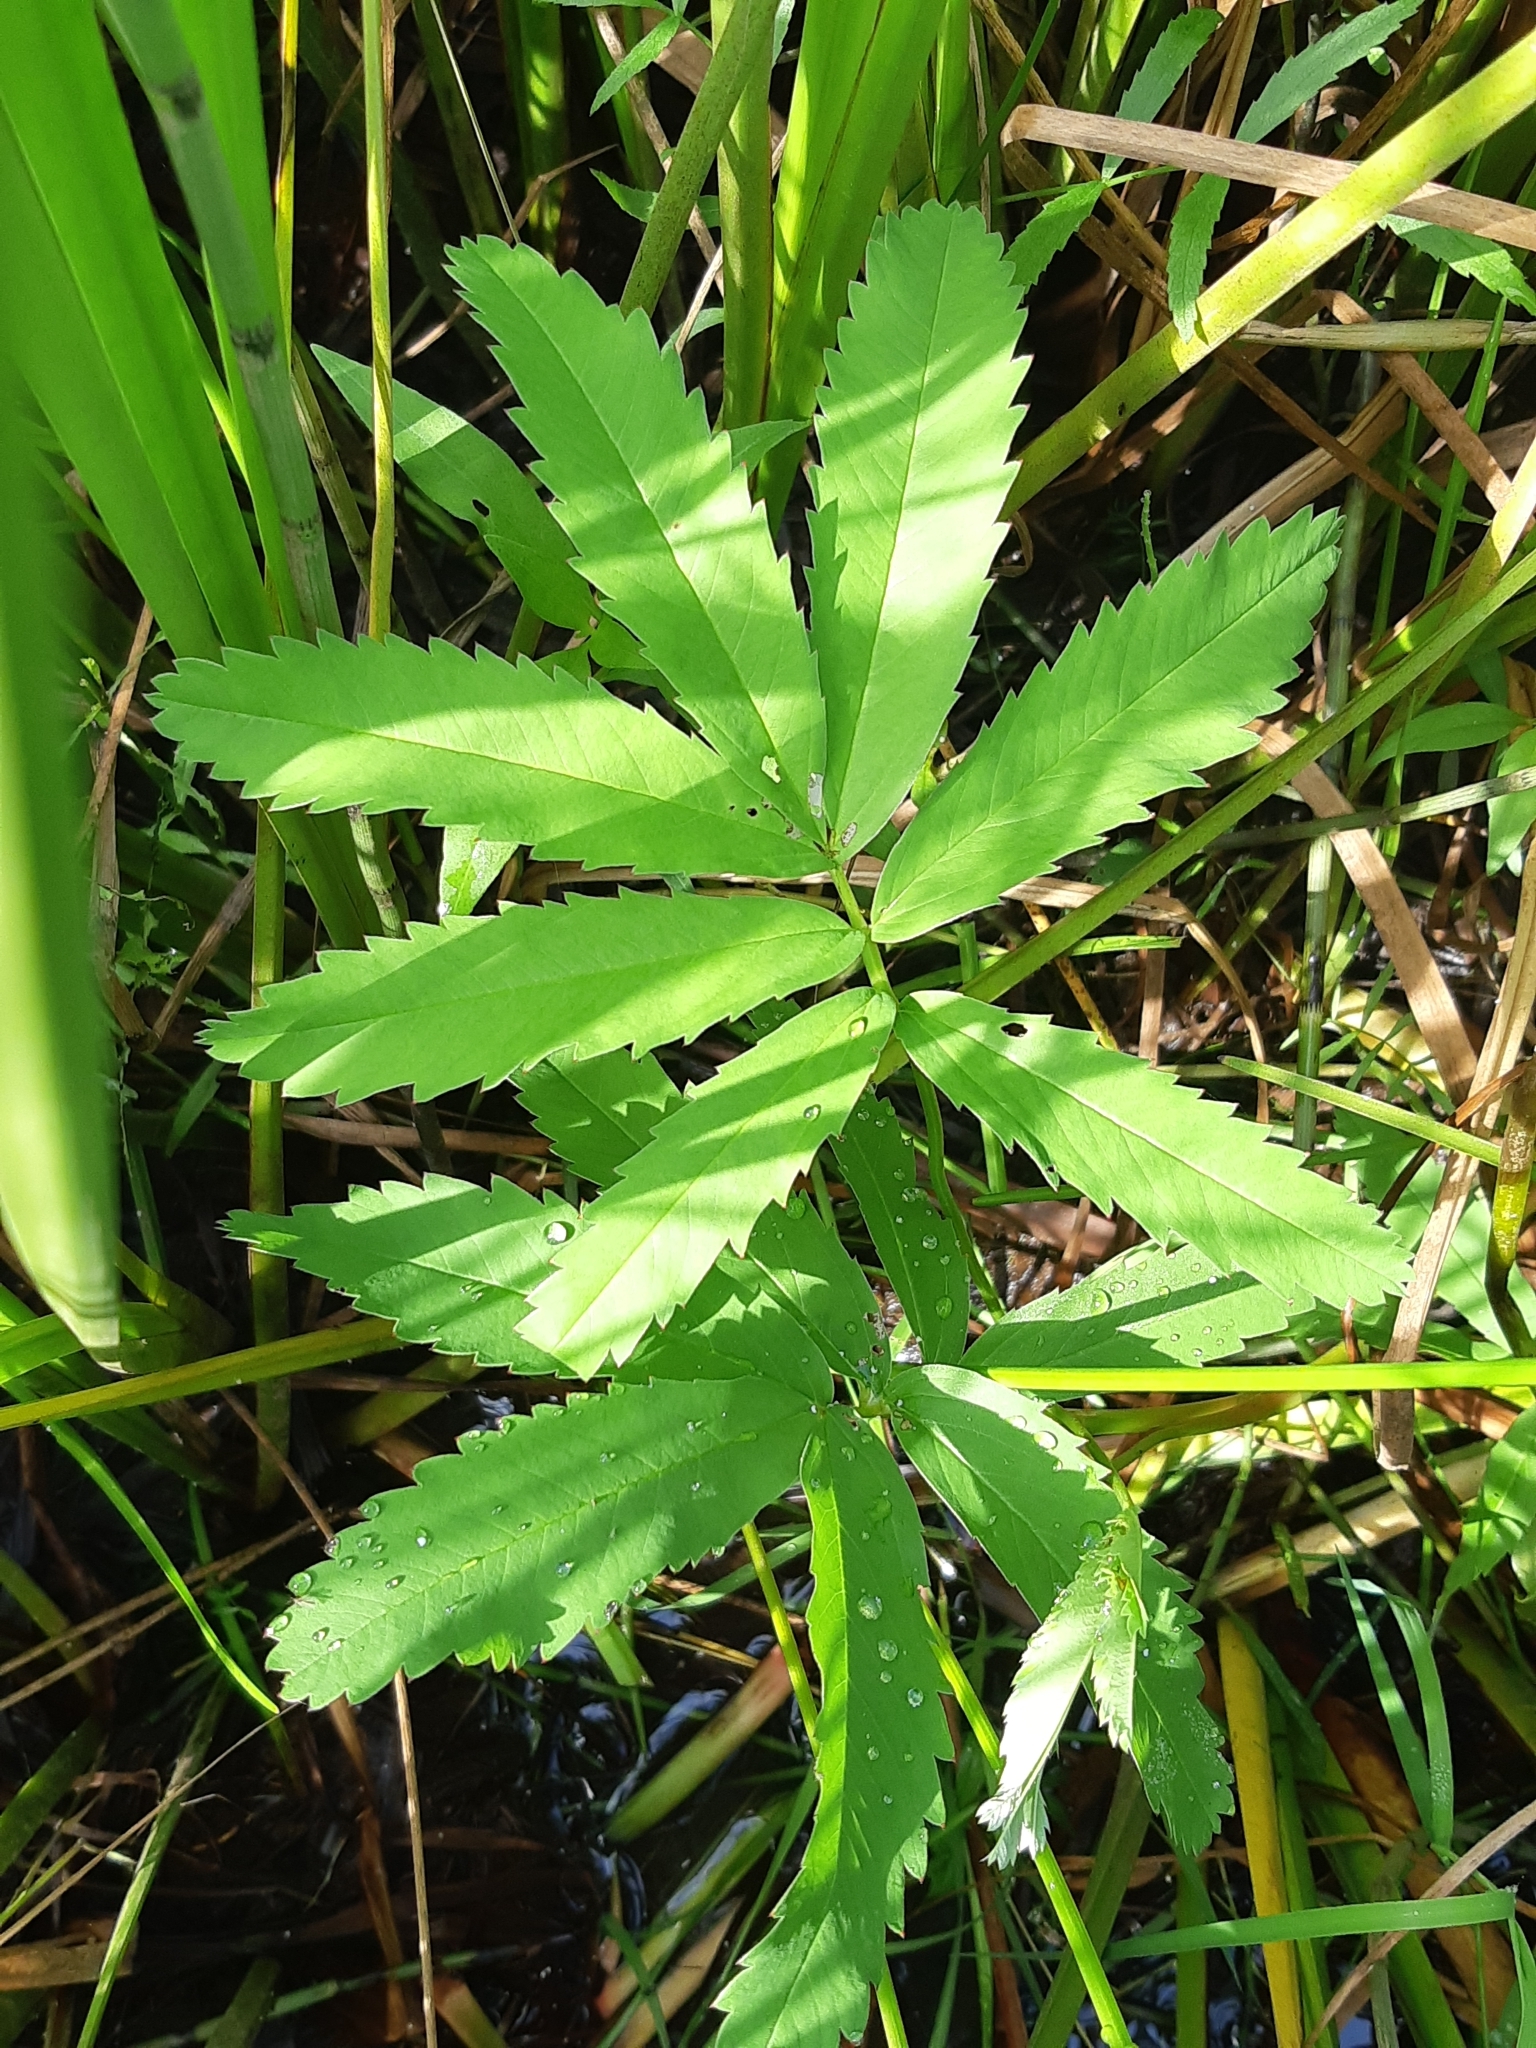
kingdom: Plantae
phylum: Tracheophyta
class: Magnoliopsida
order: Rosales
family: Rosaceae
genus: Comarum
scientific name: Comarum palustre
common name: Marsh cinquefoil
